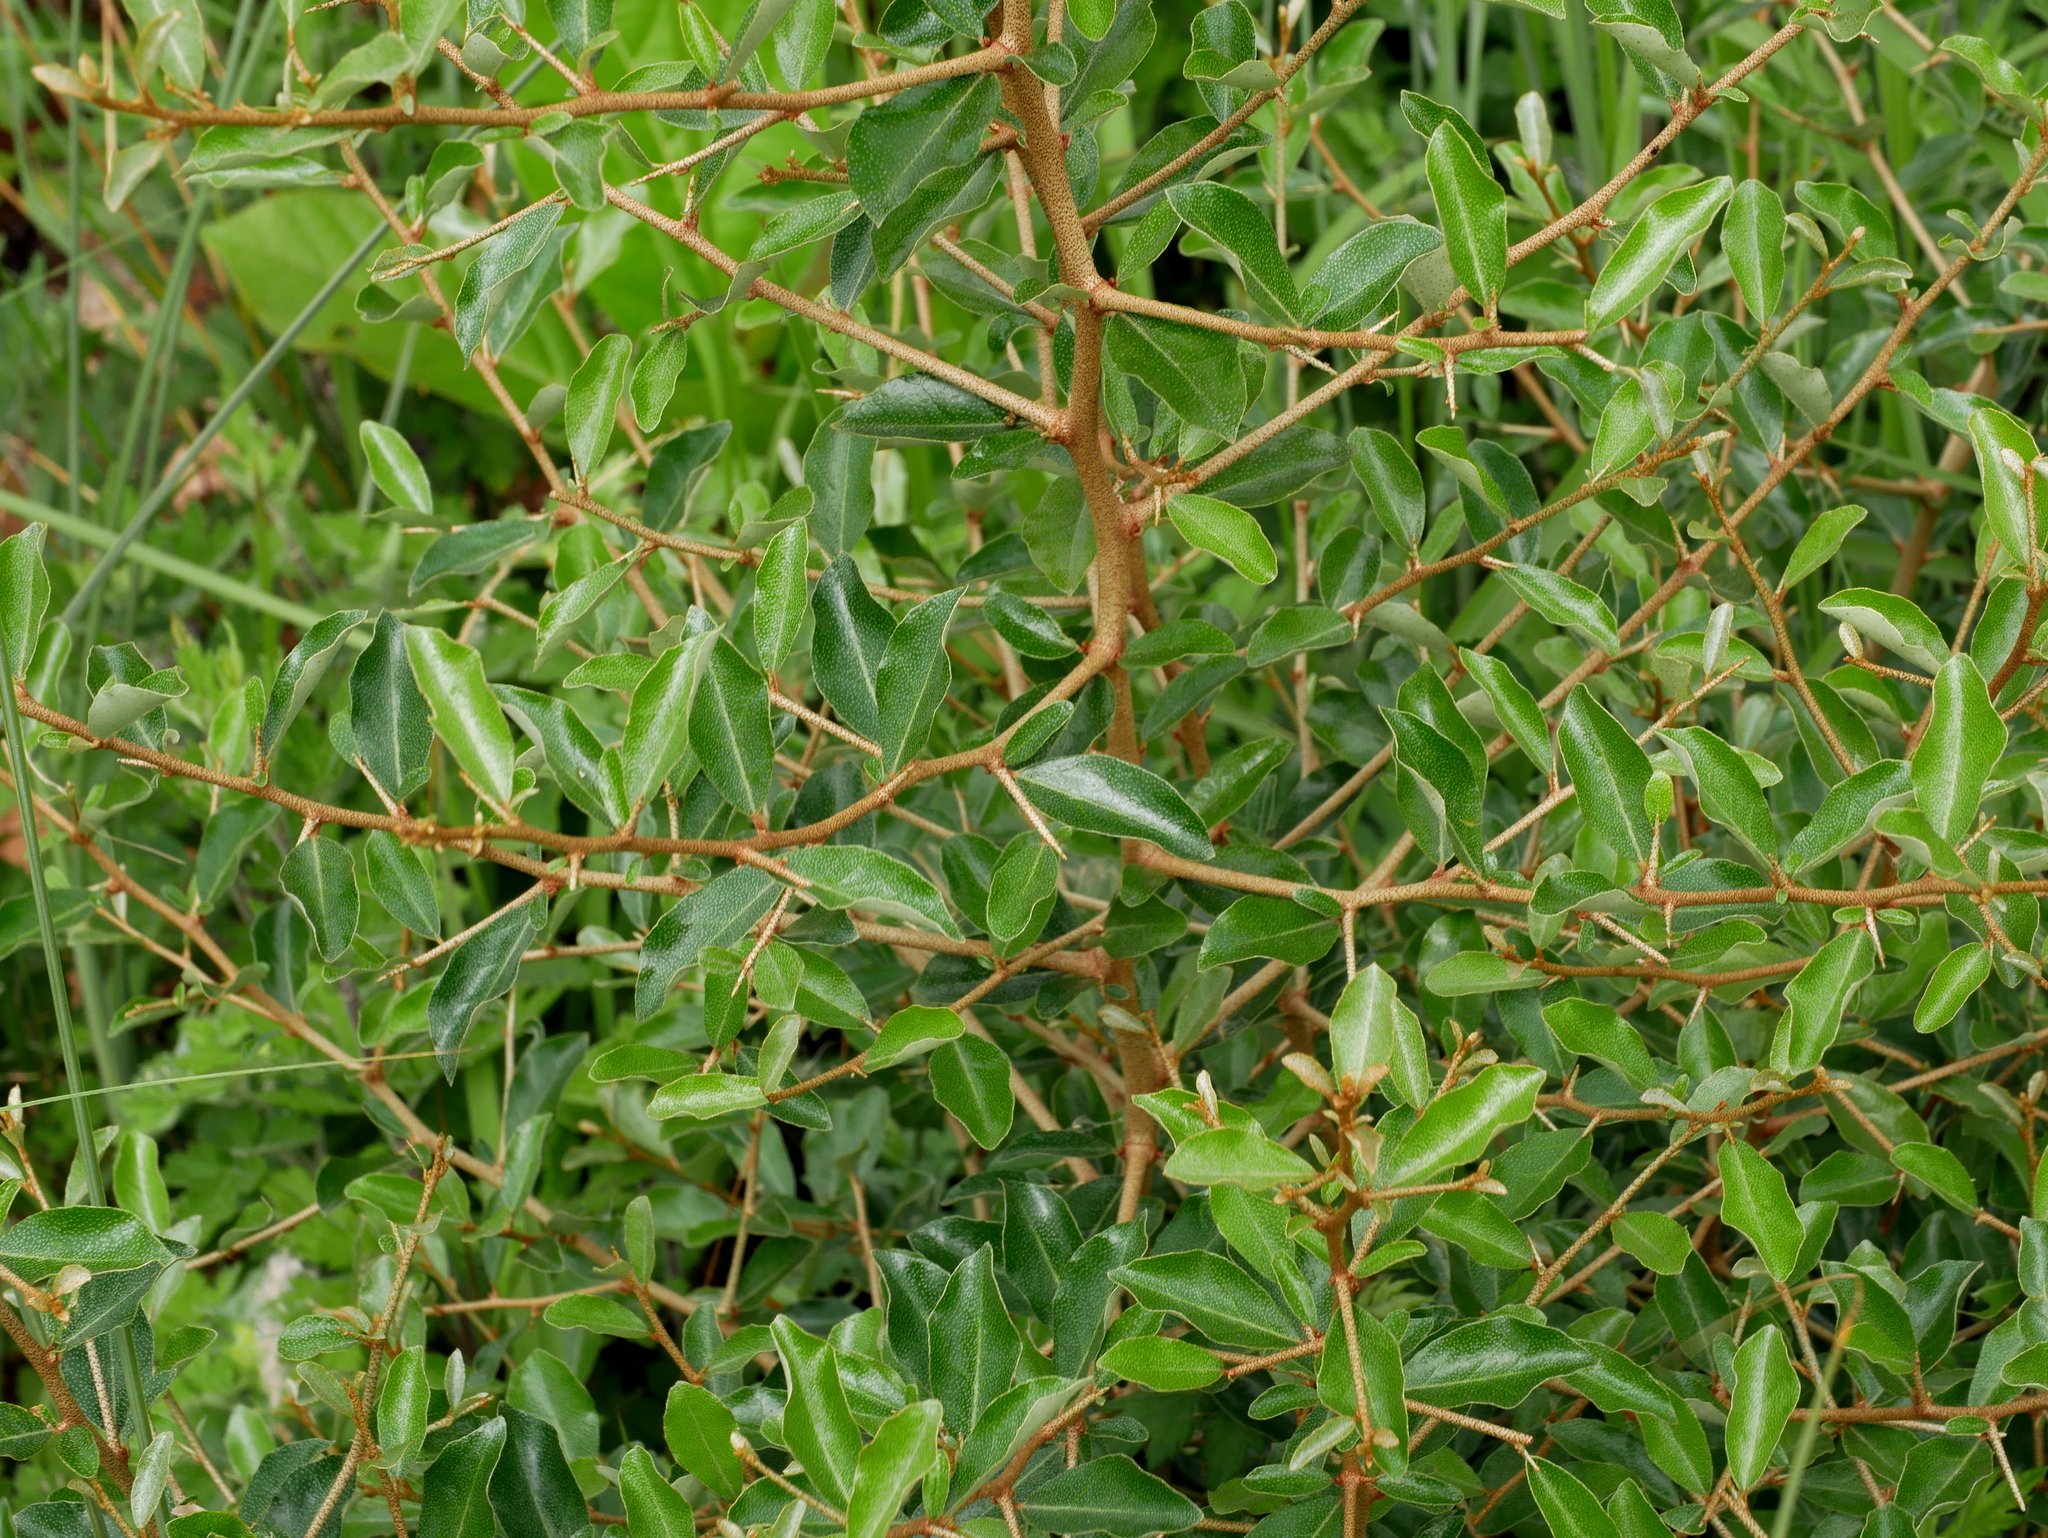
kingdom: Plantae
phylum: Tracheophyta
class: Magnoliopsida
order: Rosales
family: Elaeagnaceae
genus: Elaeagnus
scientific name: Elaeagnus oldhamii
